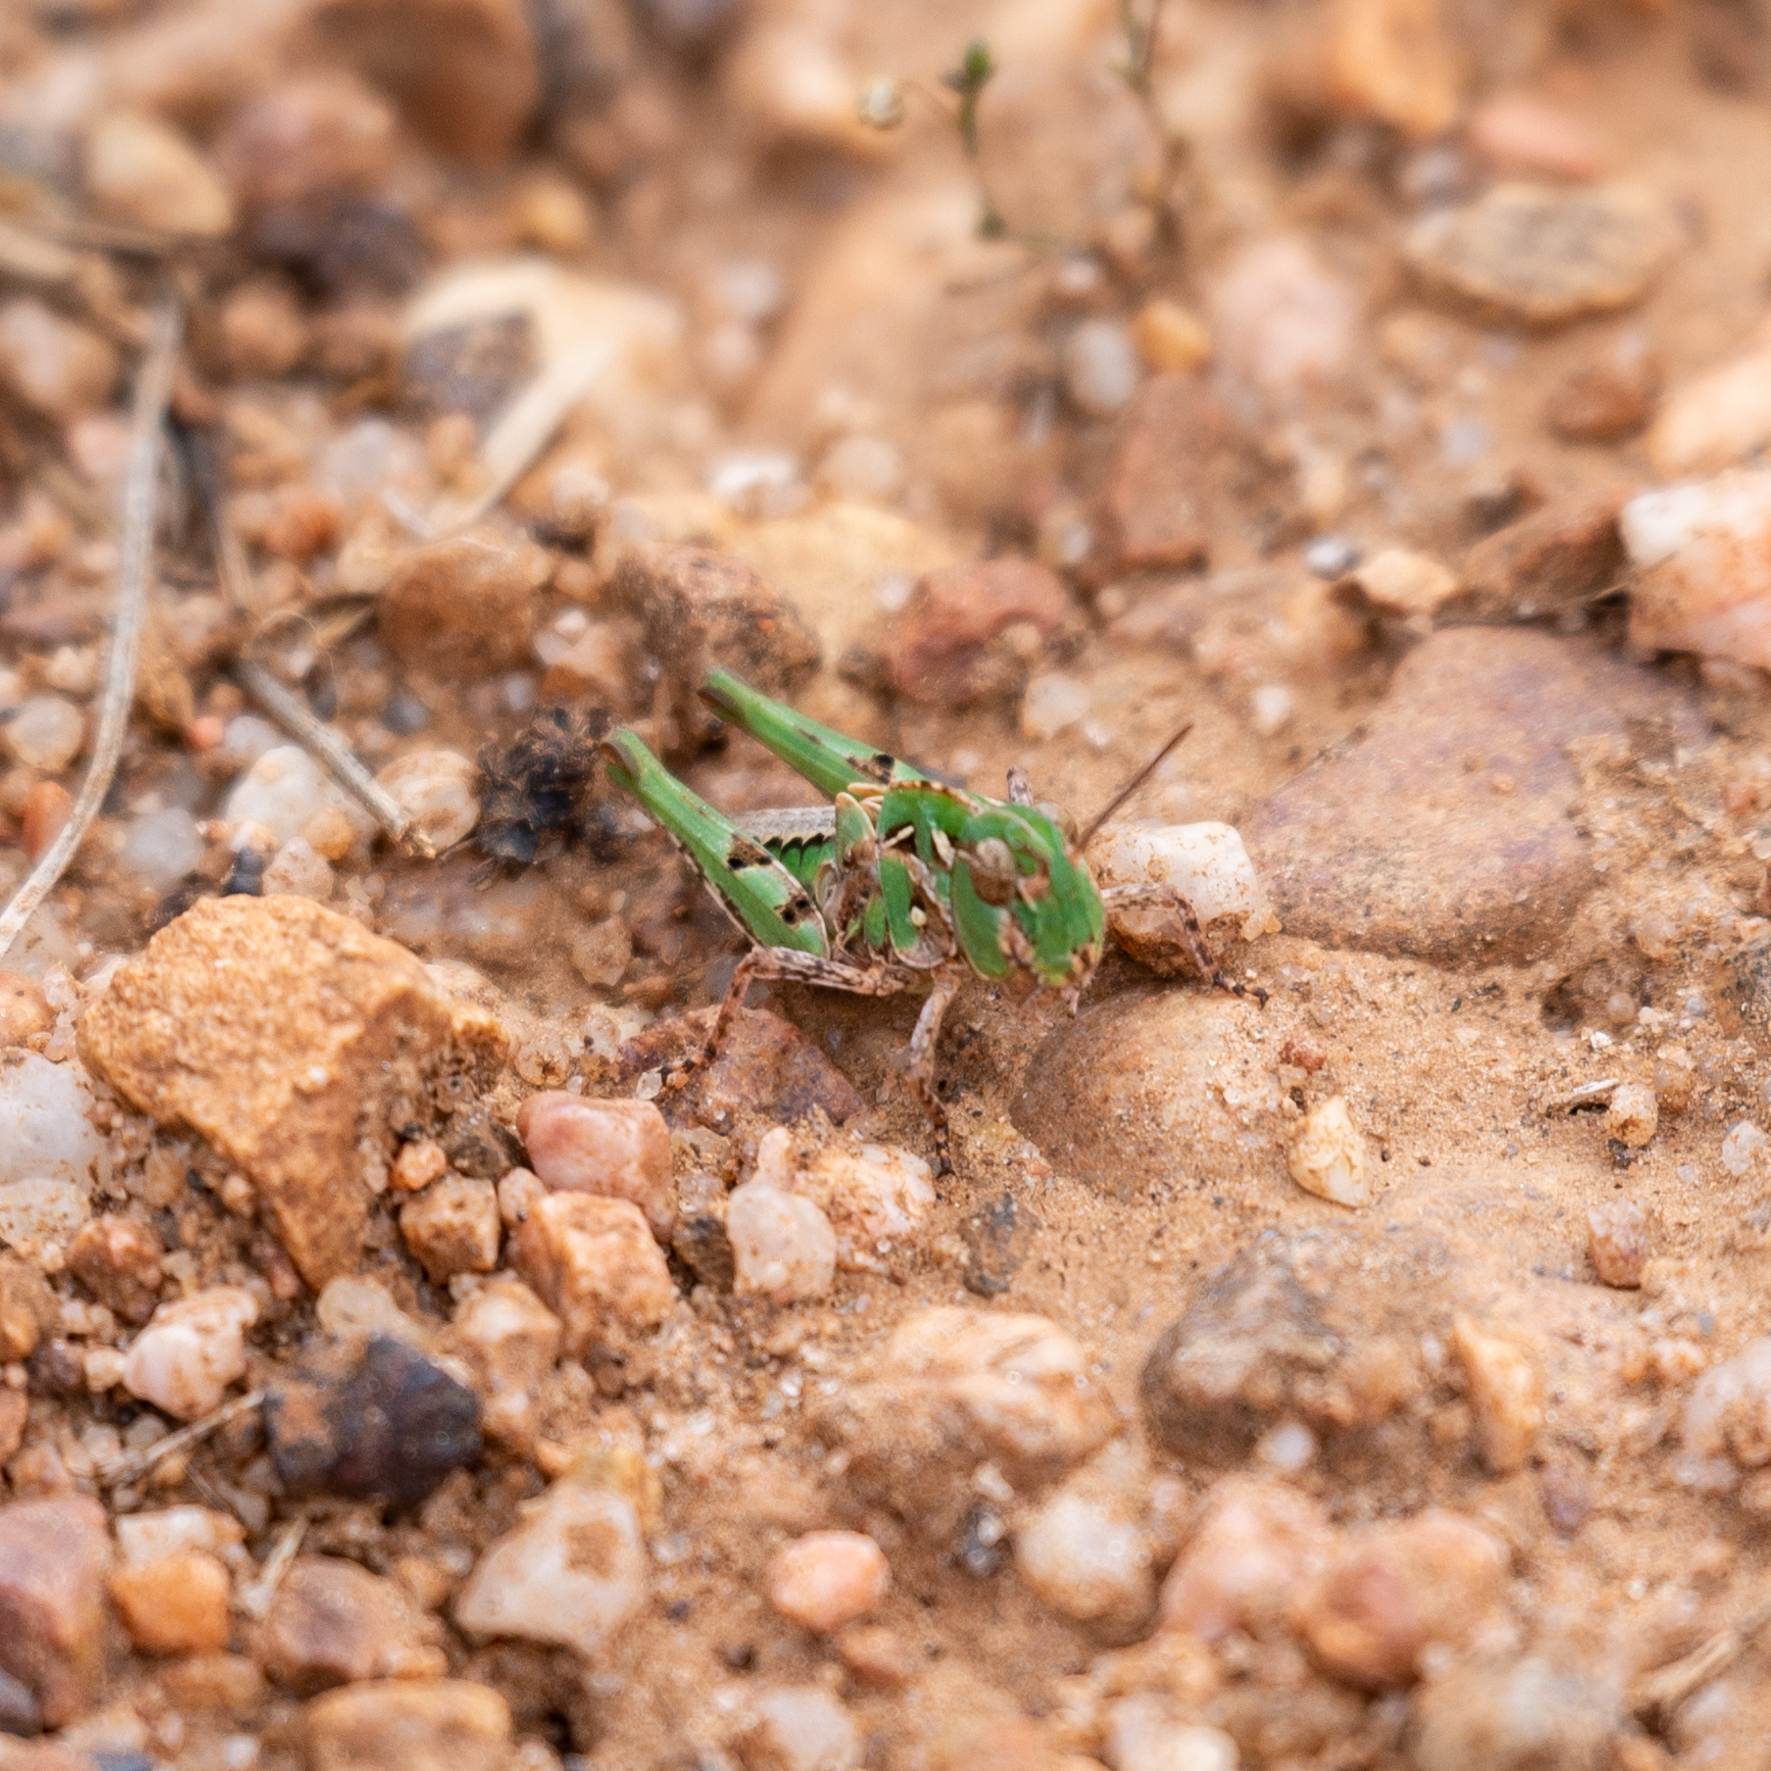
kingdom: Animalia
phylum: Arthropoda
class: Insecta
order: Orthoptera
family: Acrididae
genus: Oedaleus
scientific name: Oedaleus decorus
